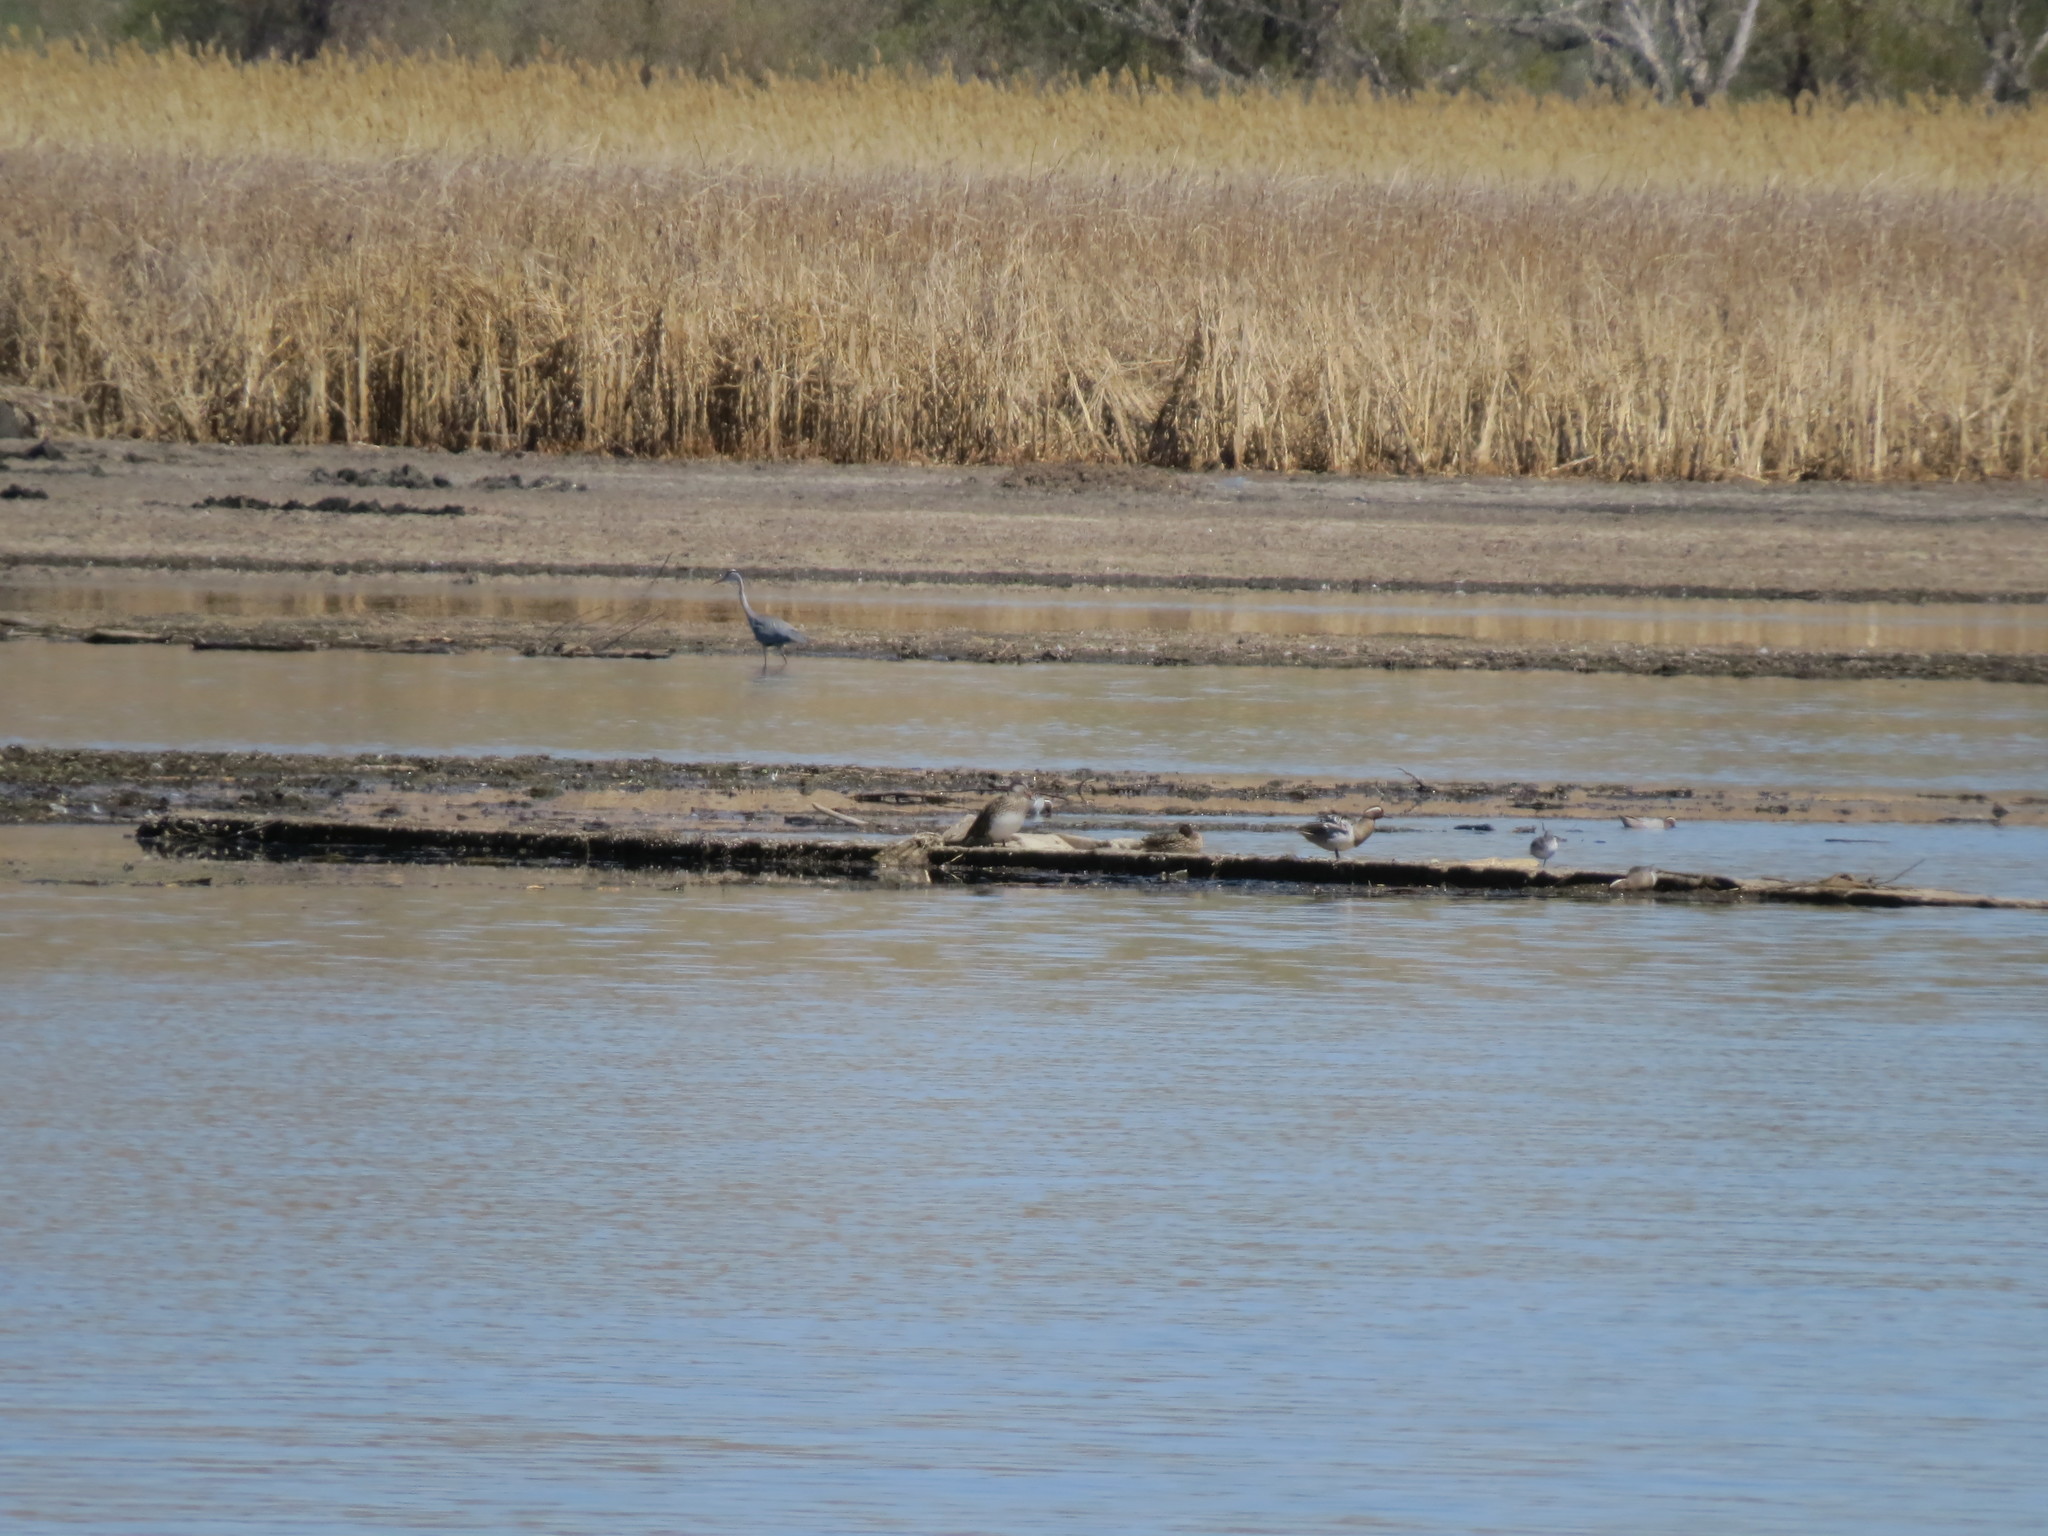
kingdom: Animalia
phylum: Chordata
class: Aves
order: Anseriformes
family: Anatidae
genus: Spatula
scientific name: Spatula querquedula
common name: Garganey
